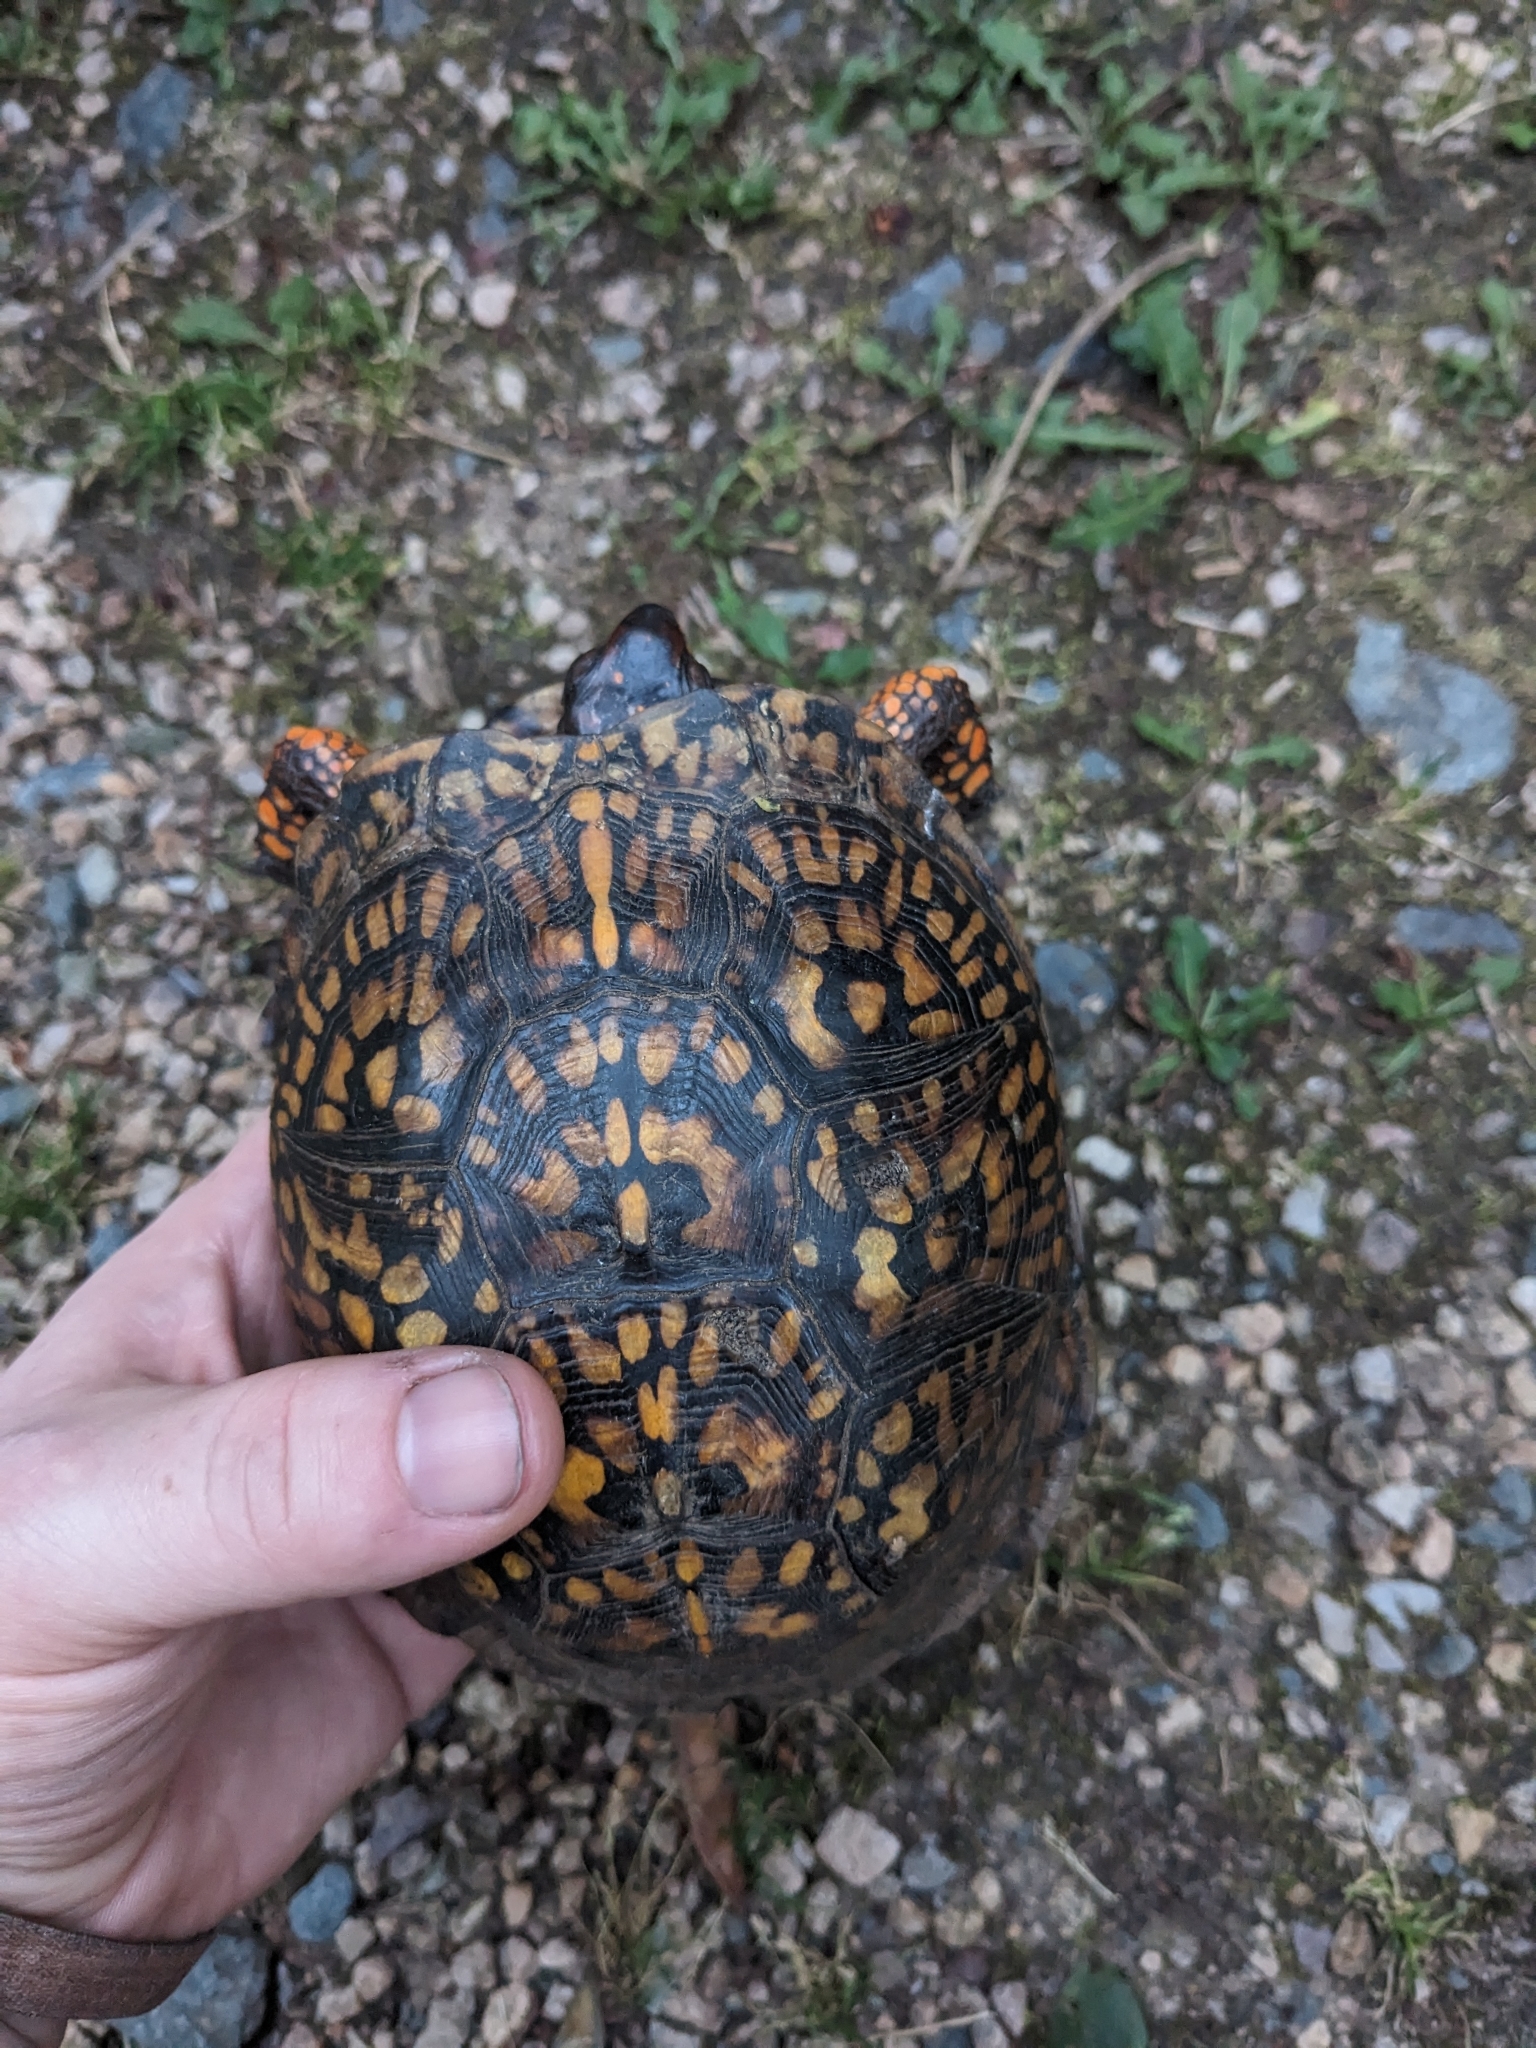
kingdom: Animalia
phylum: Chordata
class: Testudines
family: Emydidae
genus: Terrapene
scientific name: Terrapene carolina
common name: Common box turtle
